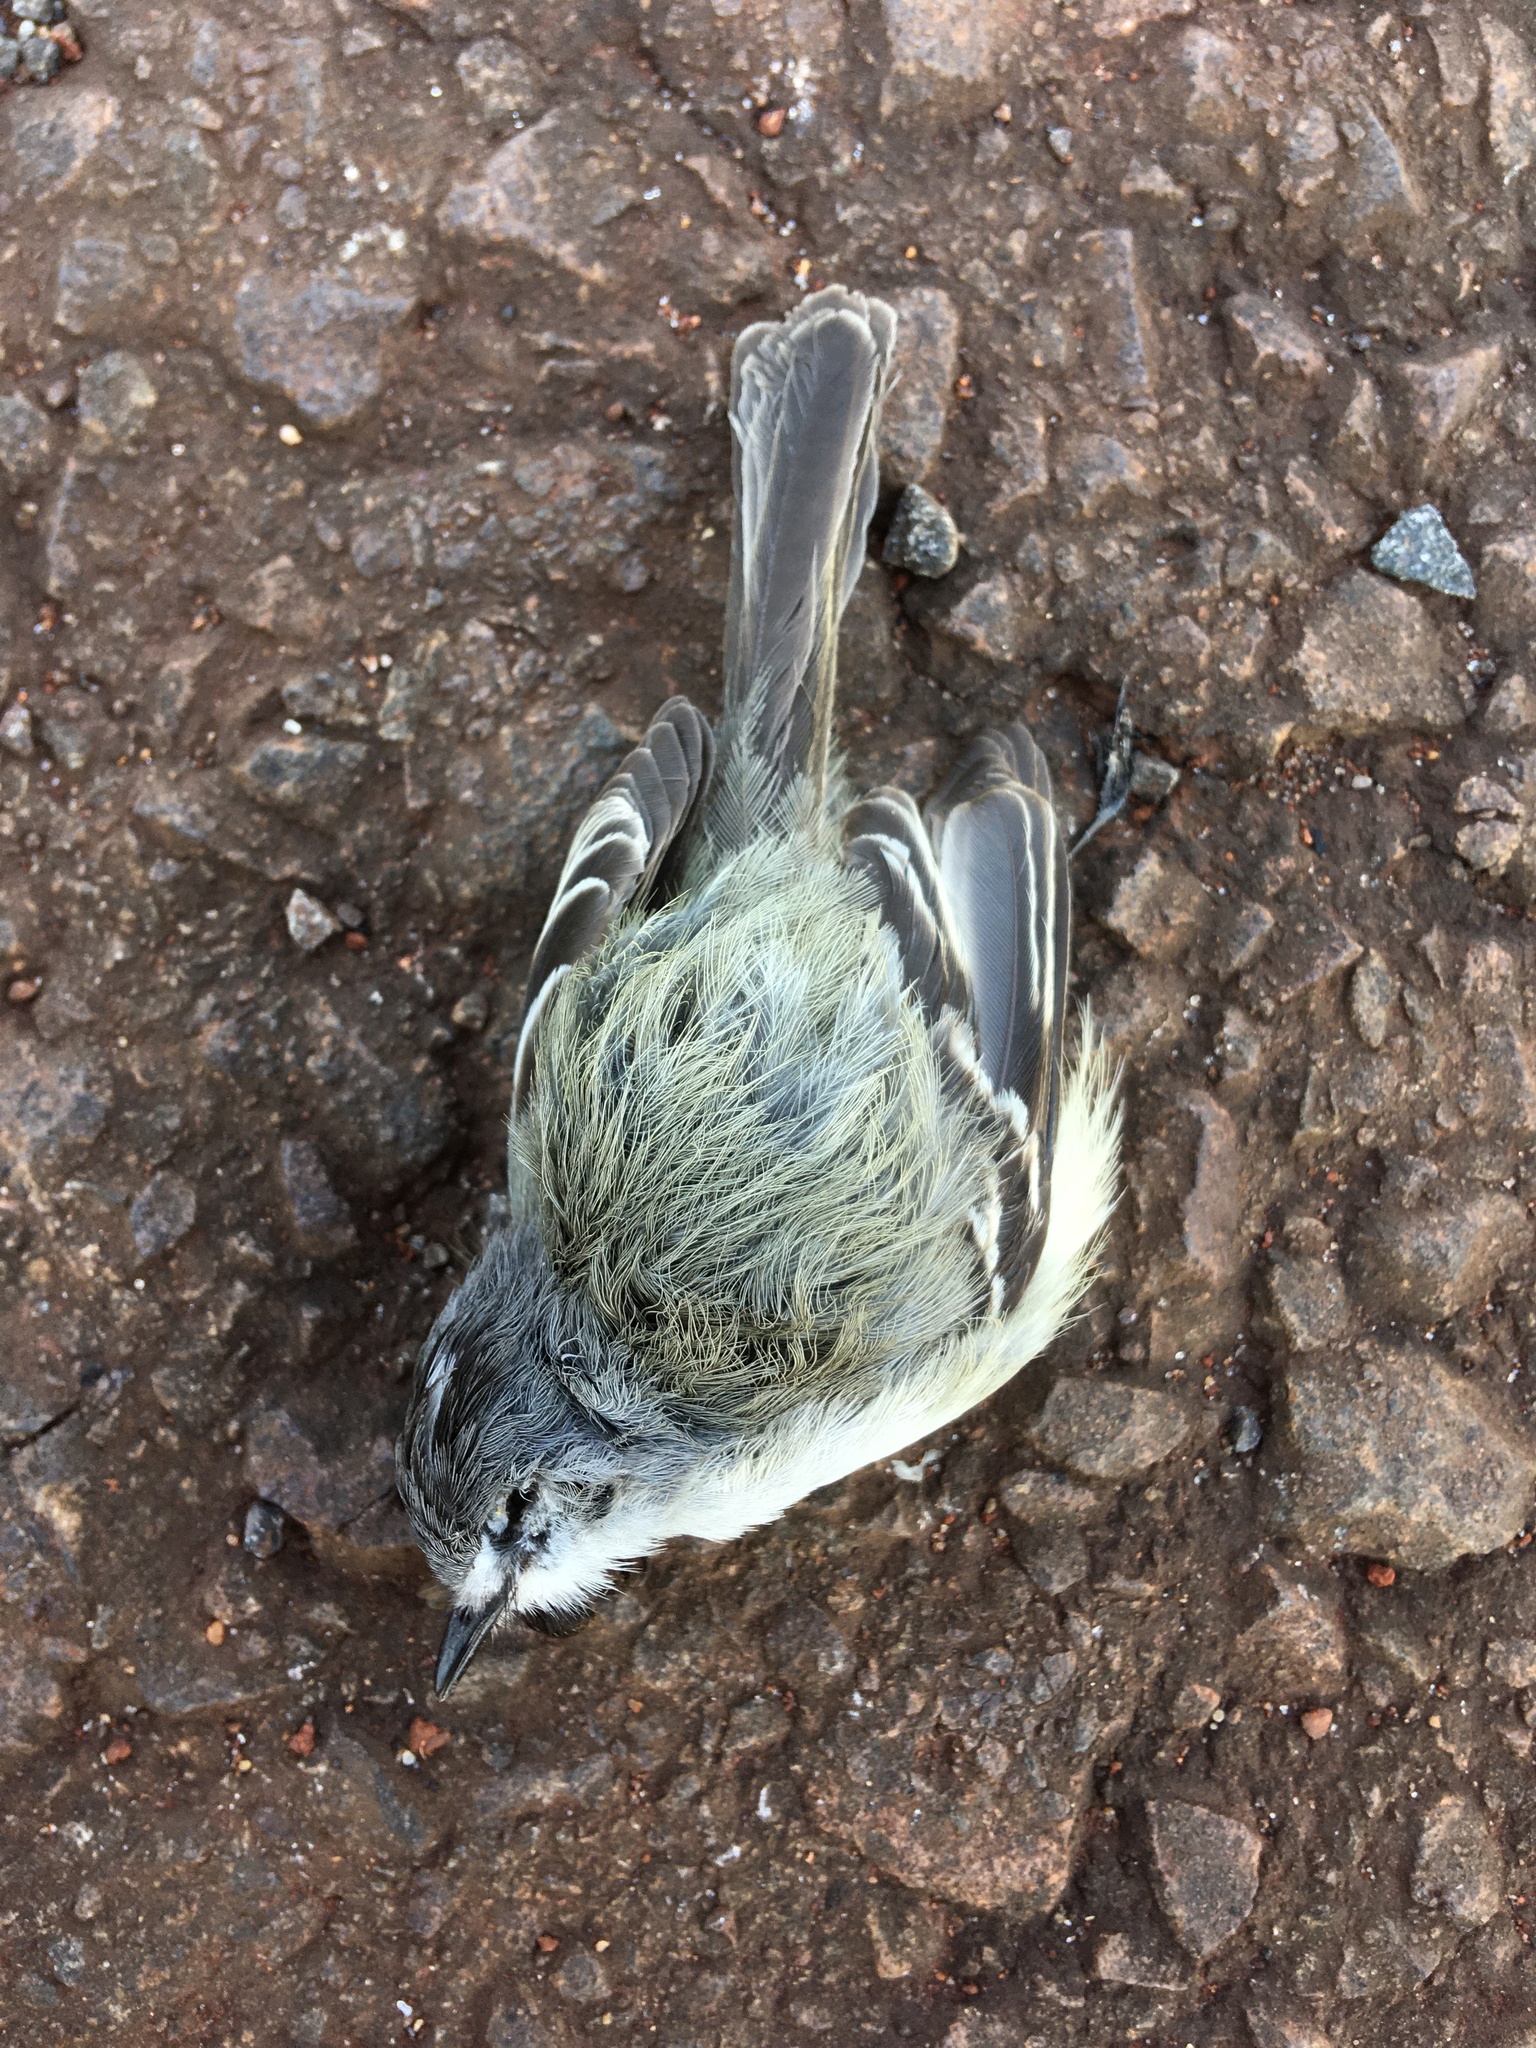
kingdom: Animalia
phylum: Chordata
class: Aves
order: Passeriformes
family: Tyrannidae
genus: Serpophaga
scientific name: Serpophaga subcristata
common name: White-crested tyrannulet
